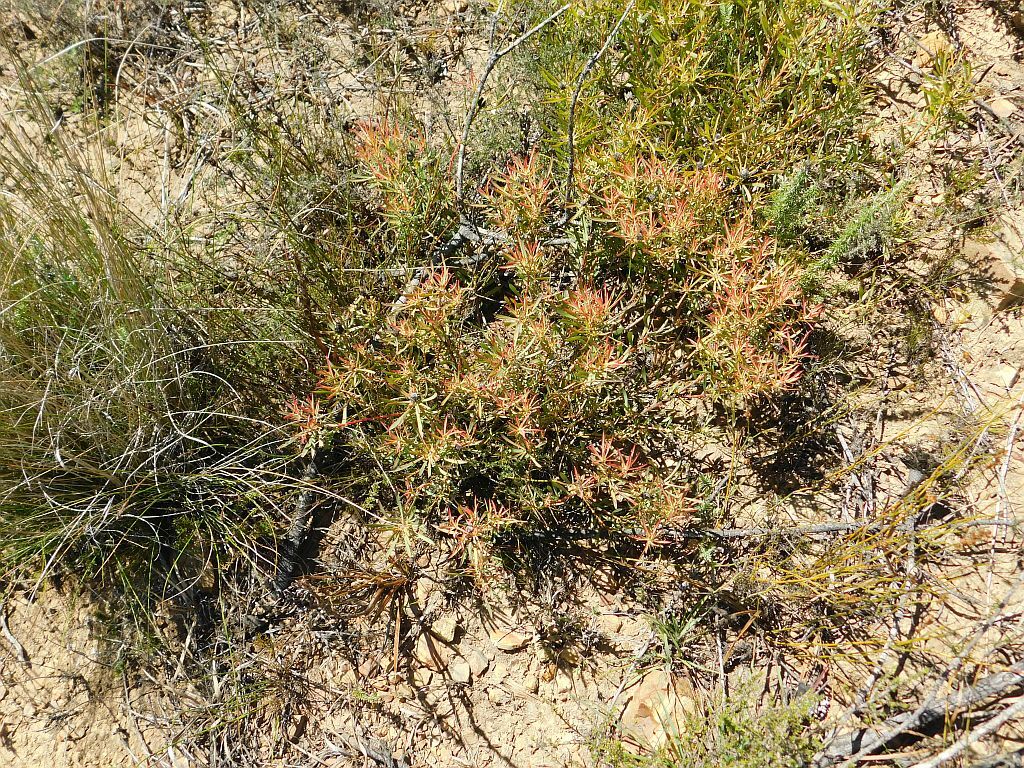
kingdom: Plantae
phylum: Tracheophyta
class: Magnoliopsida
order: Proteales
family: Proteaceae
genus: Leucadendron
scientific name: Leucadendron salignum
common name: Common sunshine conebush
